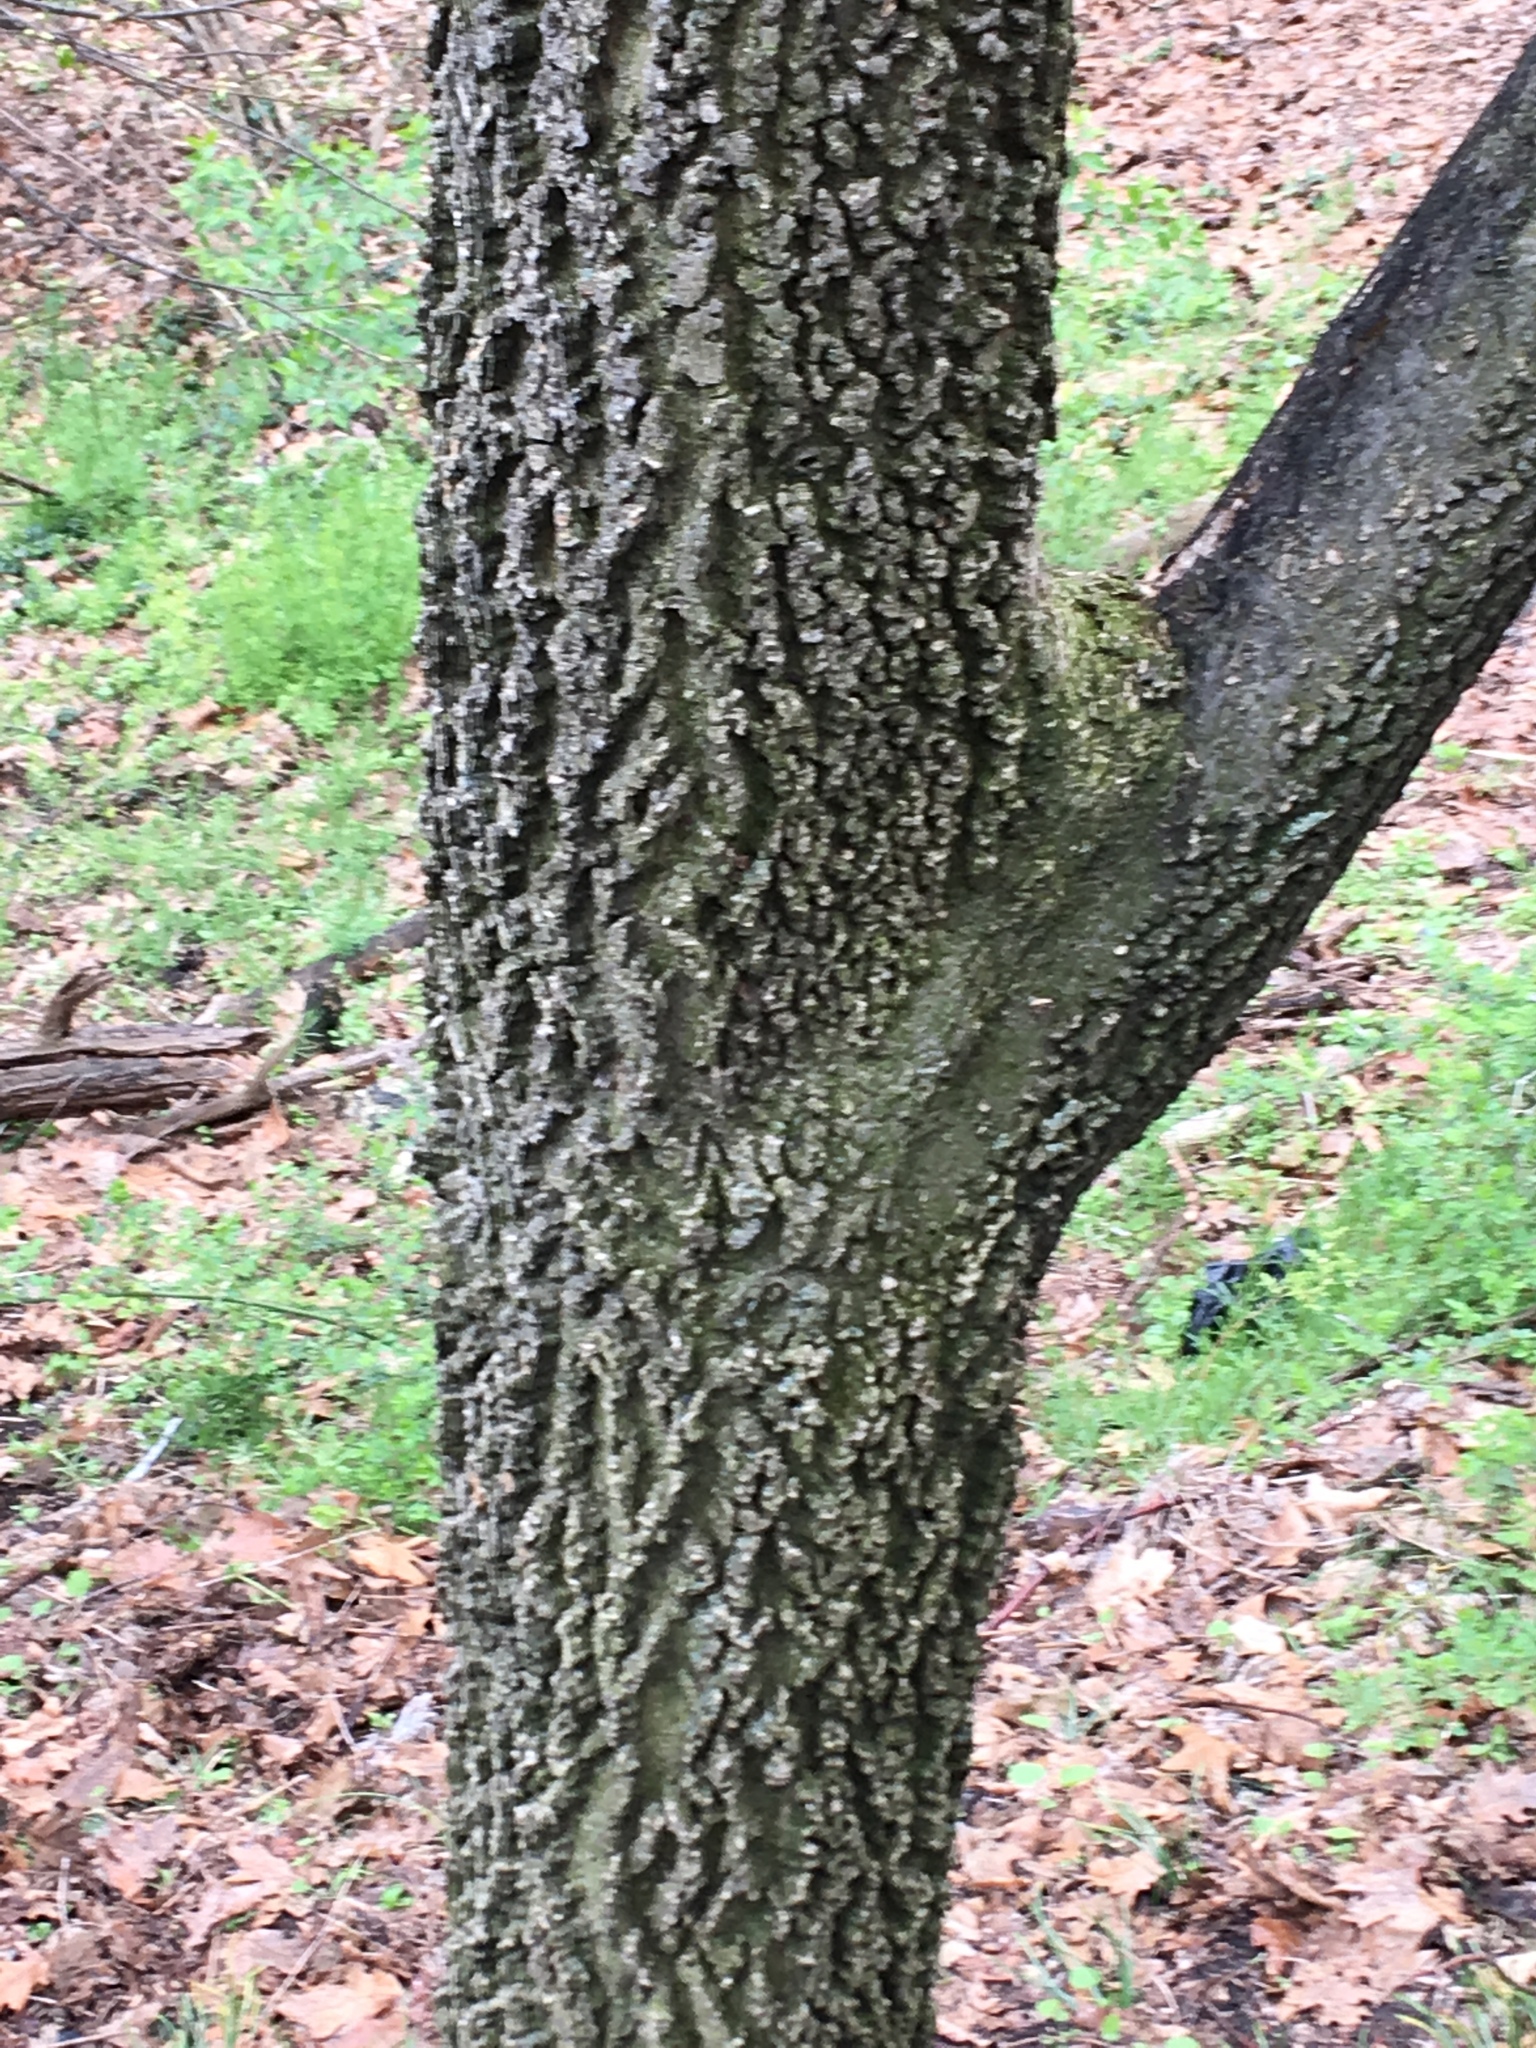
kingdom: Plantae
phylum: Tracheophyta
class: Magnoliopsida
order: Rosales
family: Cannabaceae
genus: Celtis
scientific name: Celtis occidentalis
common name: Common hackberry
